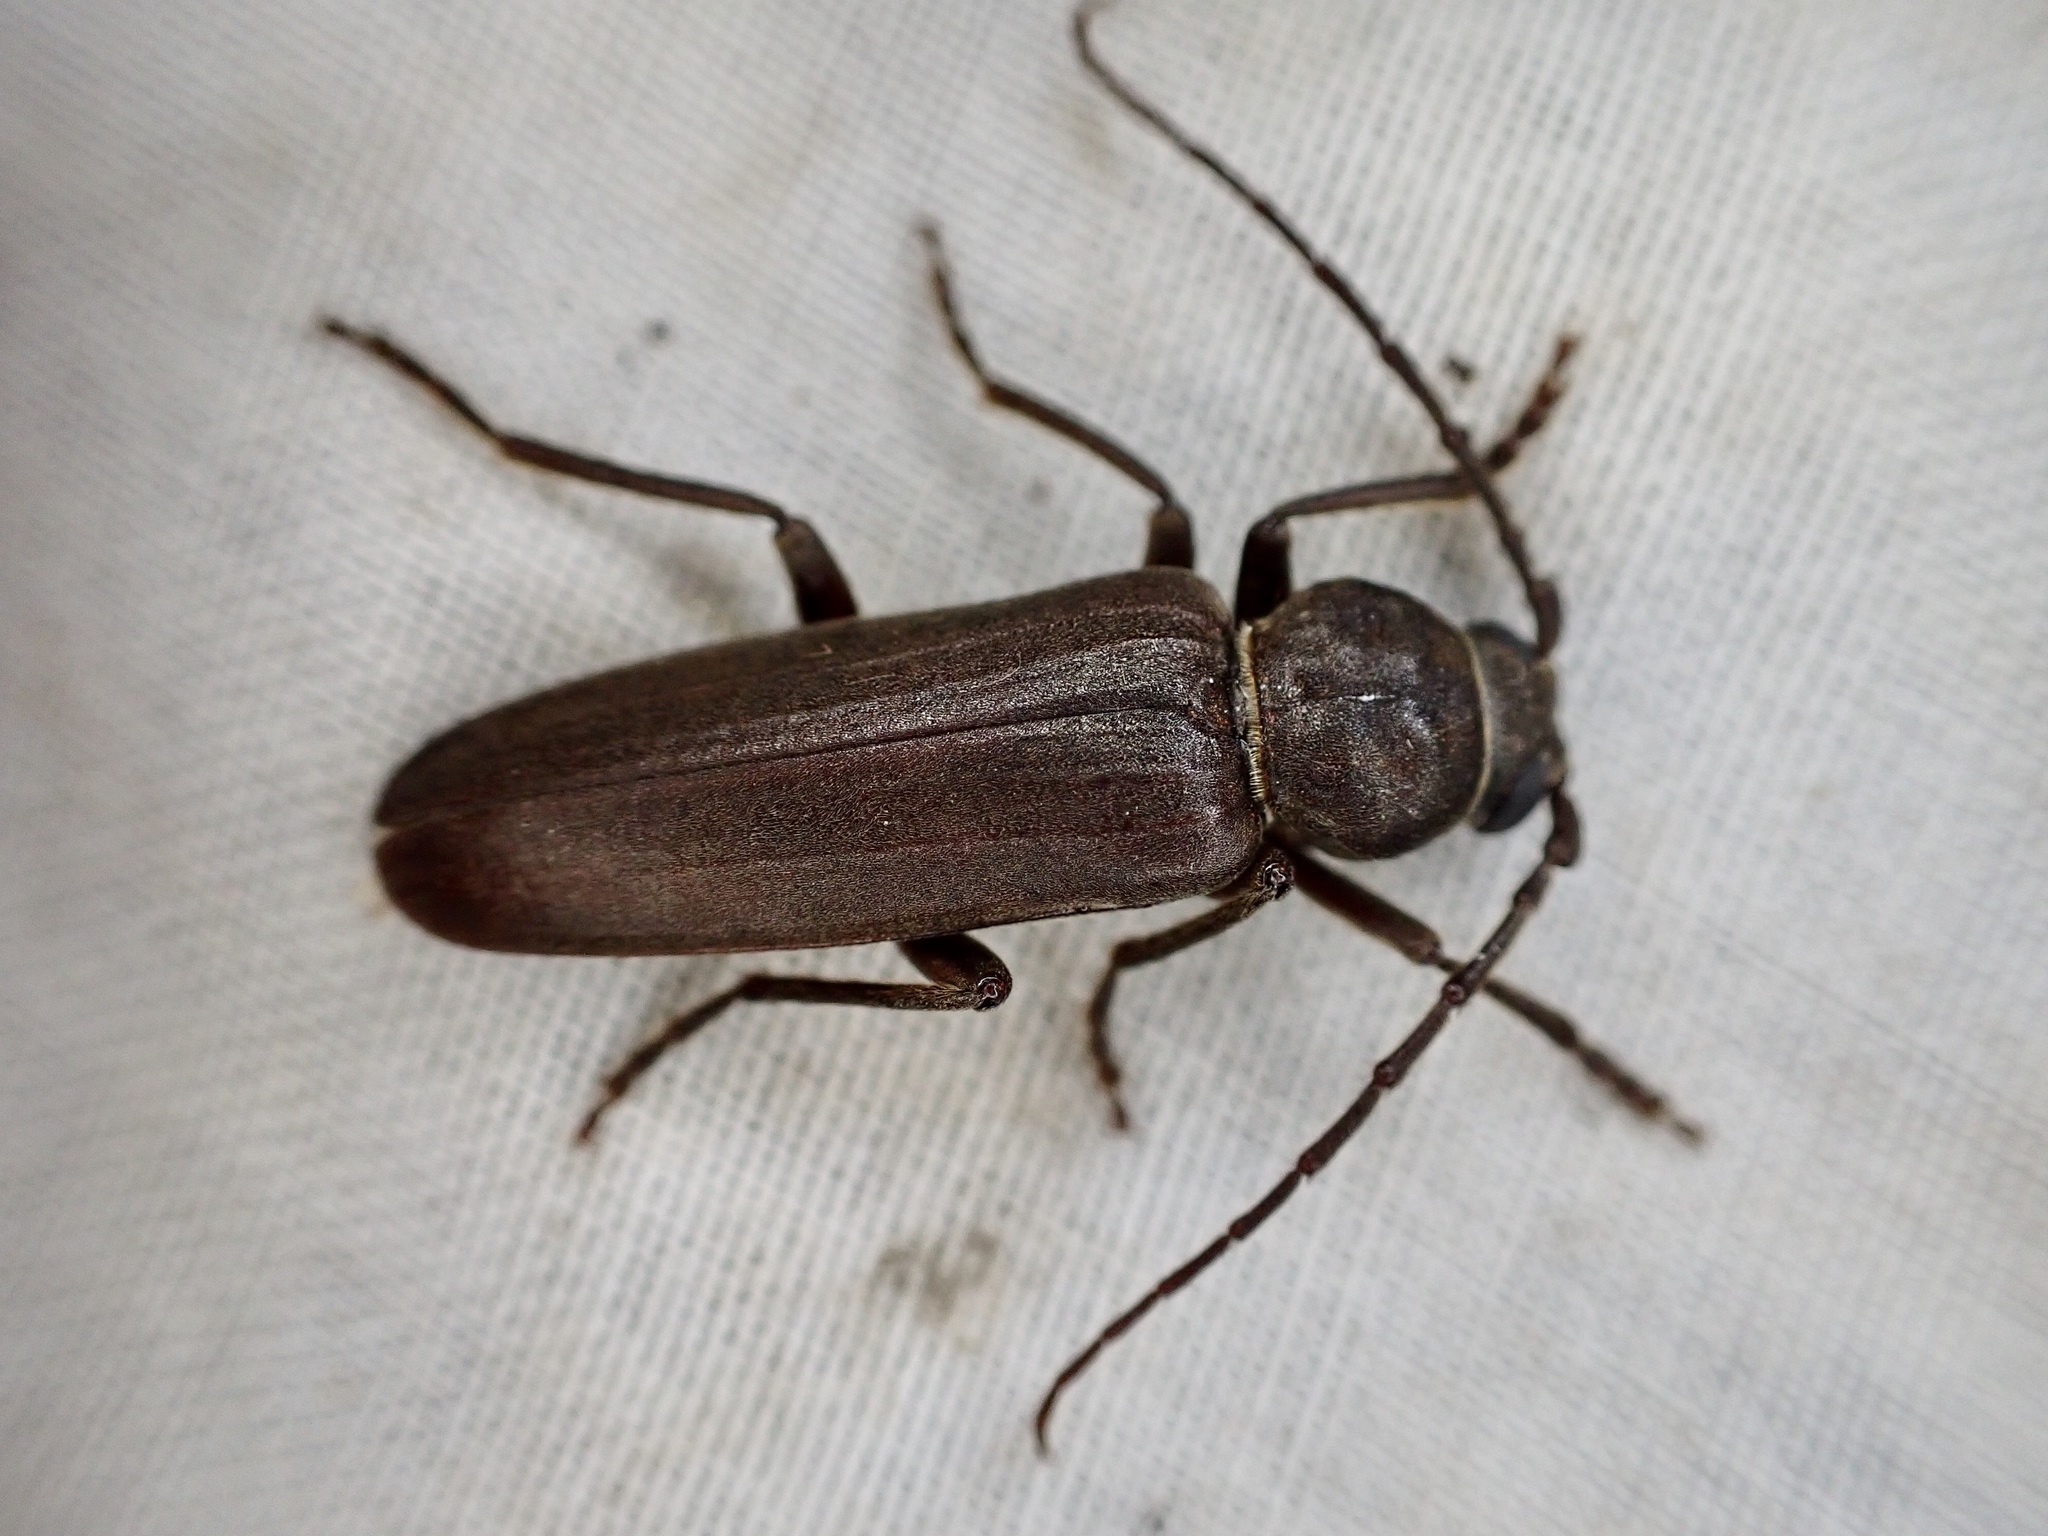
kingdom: Animalia
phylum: Arthropoda
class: Insecta
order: Coleoptera
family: Cerambycidae
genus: Arhopalus
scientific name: Arhopalus ferus
